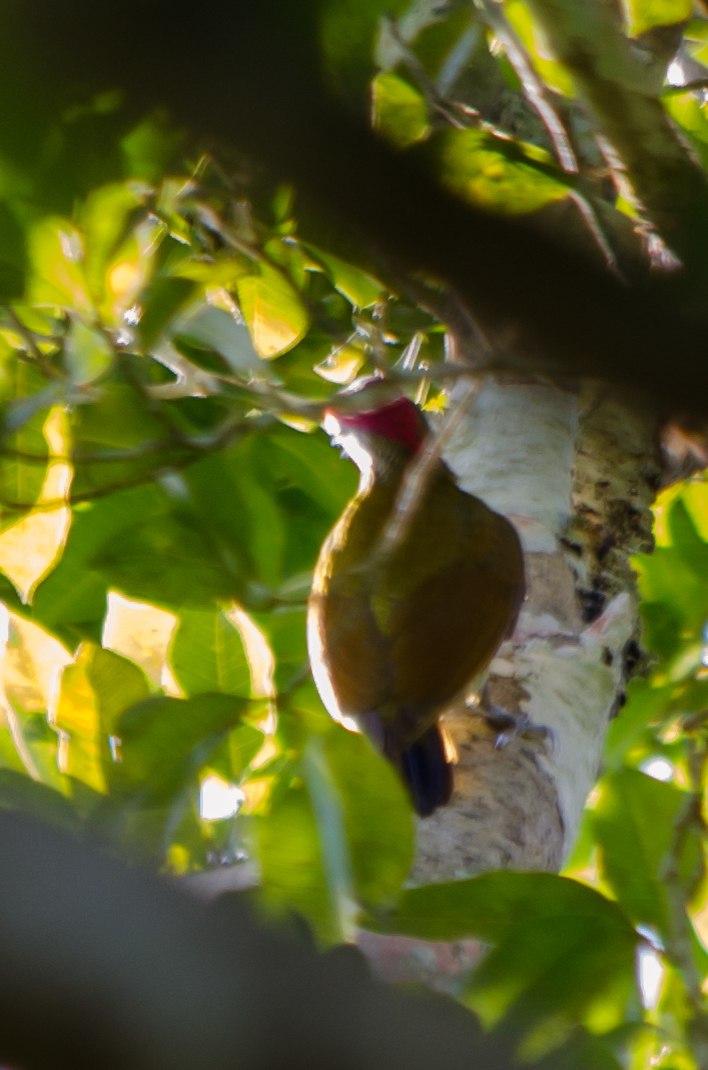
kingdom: Animalia
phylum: Chordata
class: Aves
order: Piciformes
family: Picidae
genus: Colaptes
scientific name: Colaptes rubiginosus
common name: Golden-olive woodpecker
